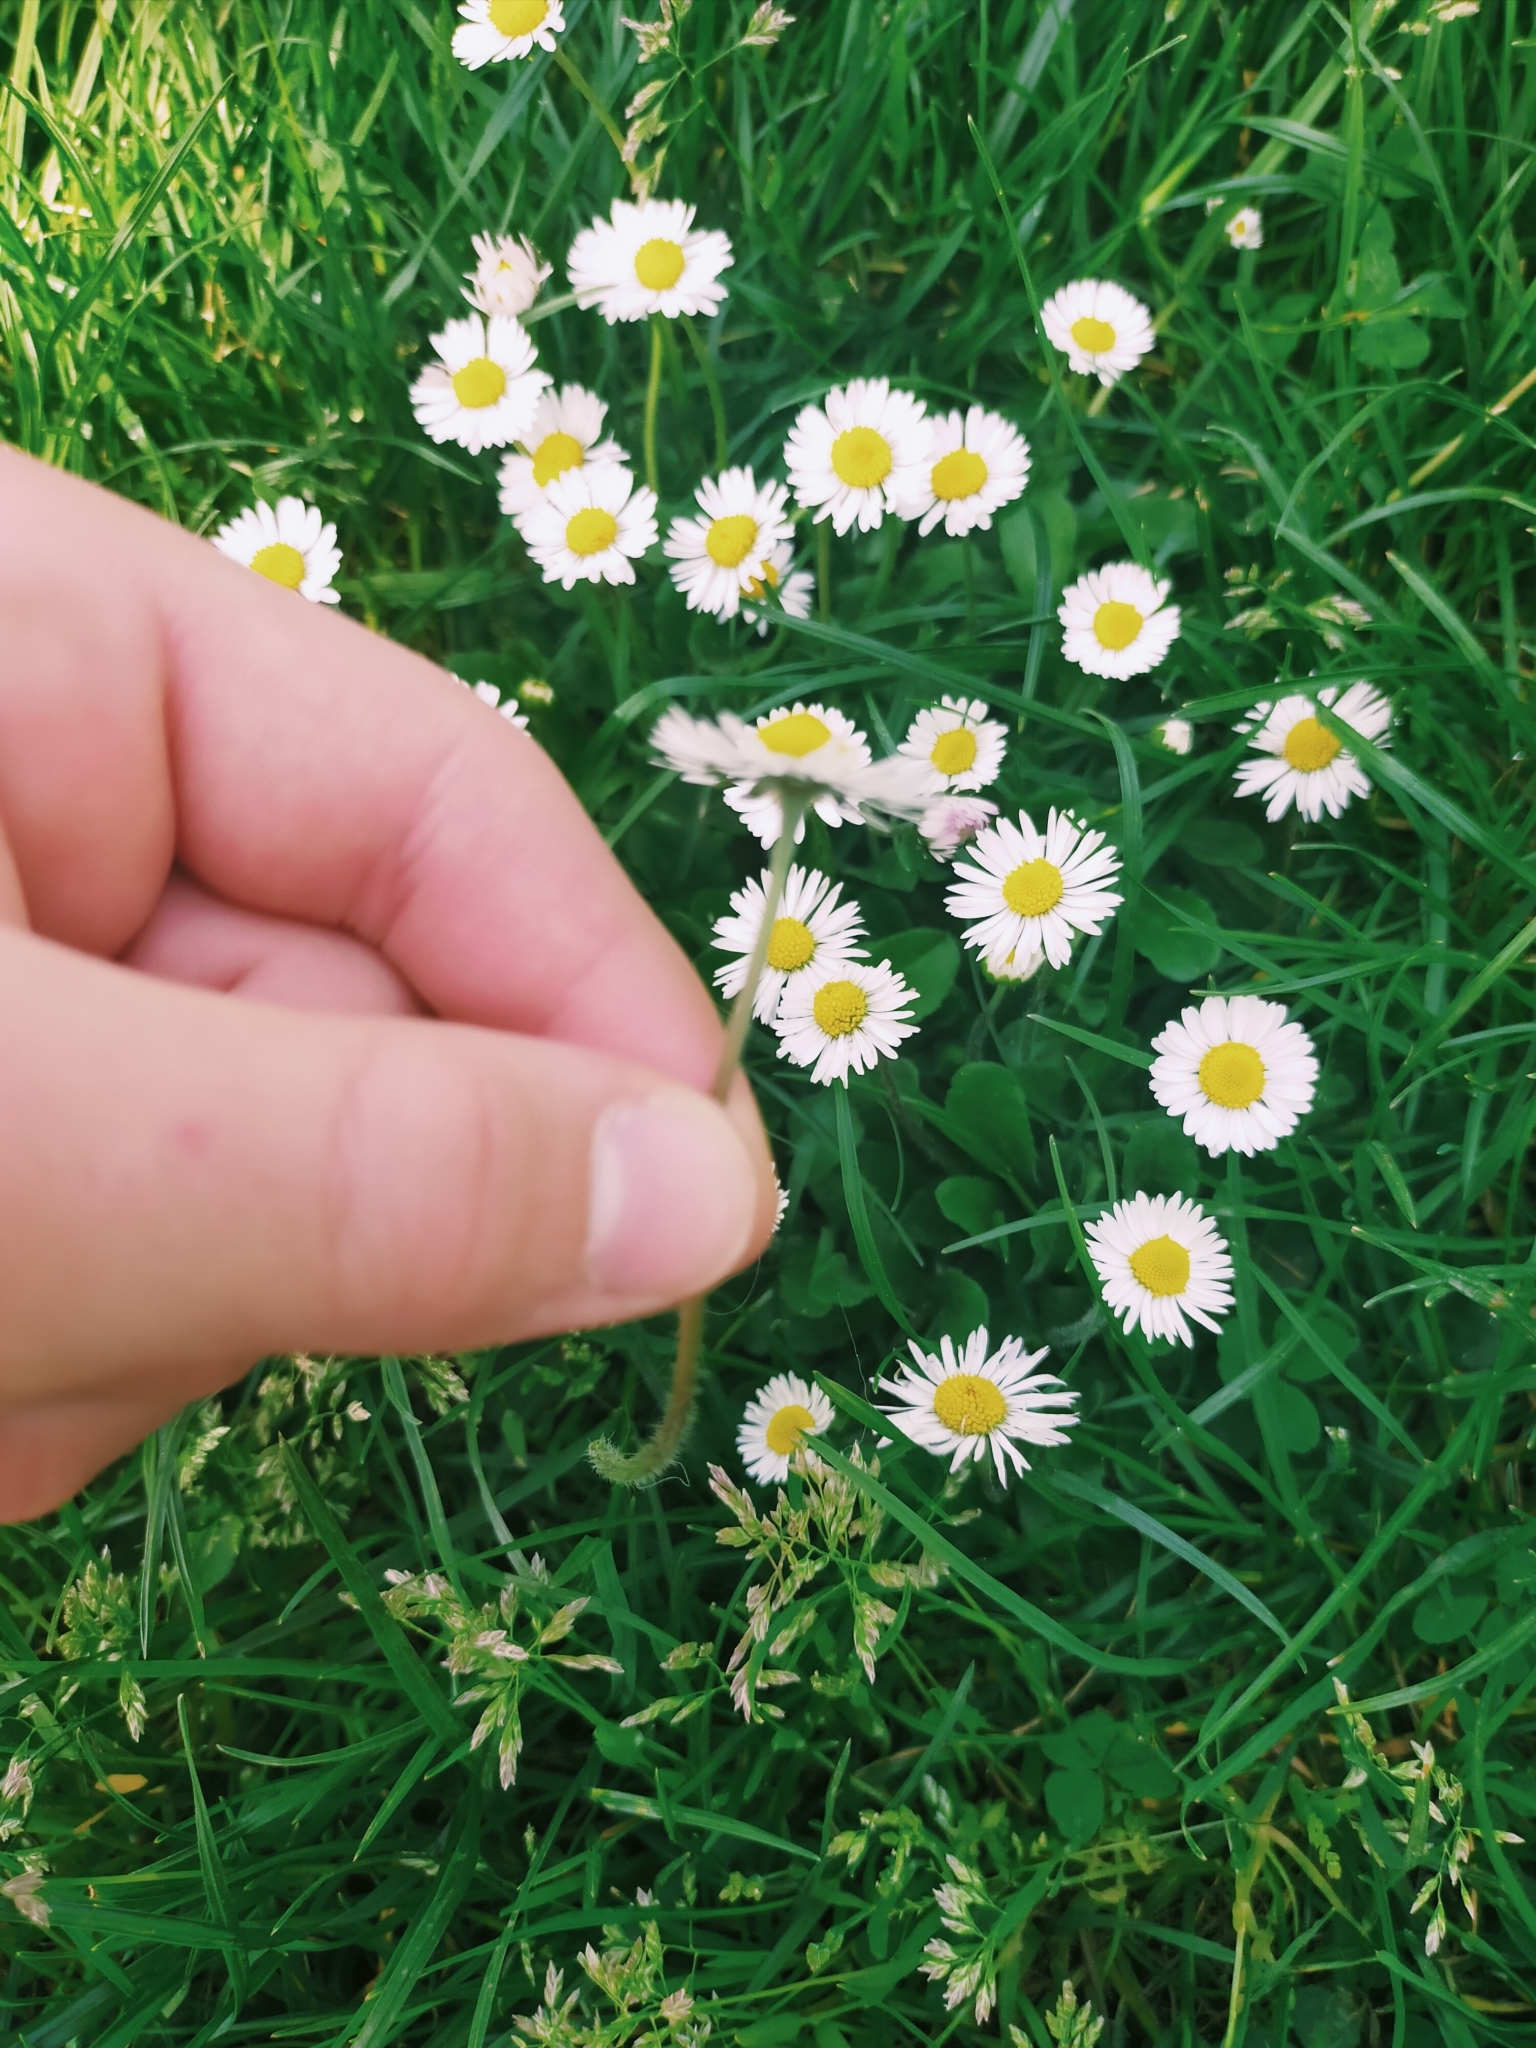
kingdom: Plantae
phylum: Tracheophyta
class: Magnoliopsida
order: Asterales
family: Asteraceae
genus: Bellis
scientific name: Bellis perennis
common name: Lawndaisy
